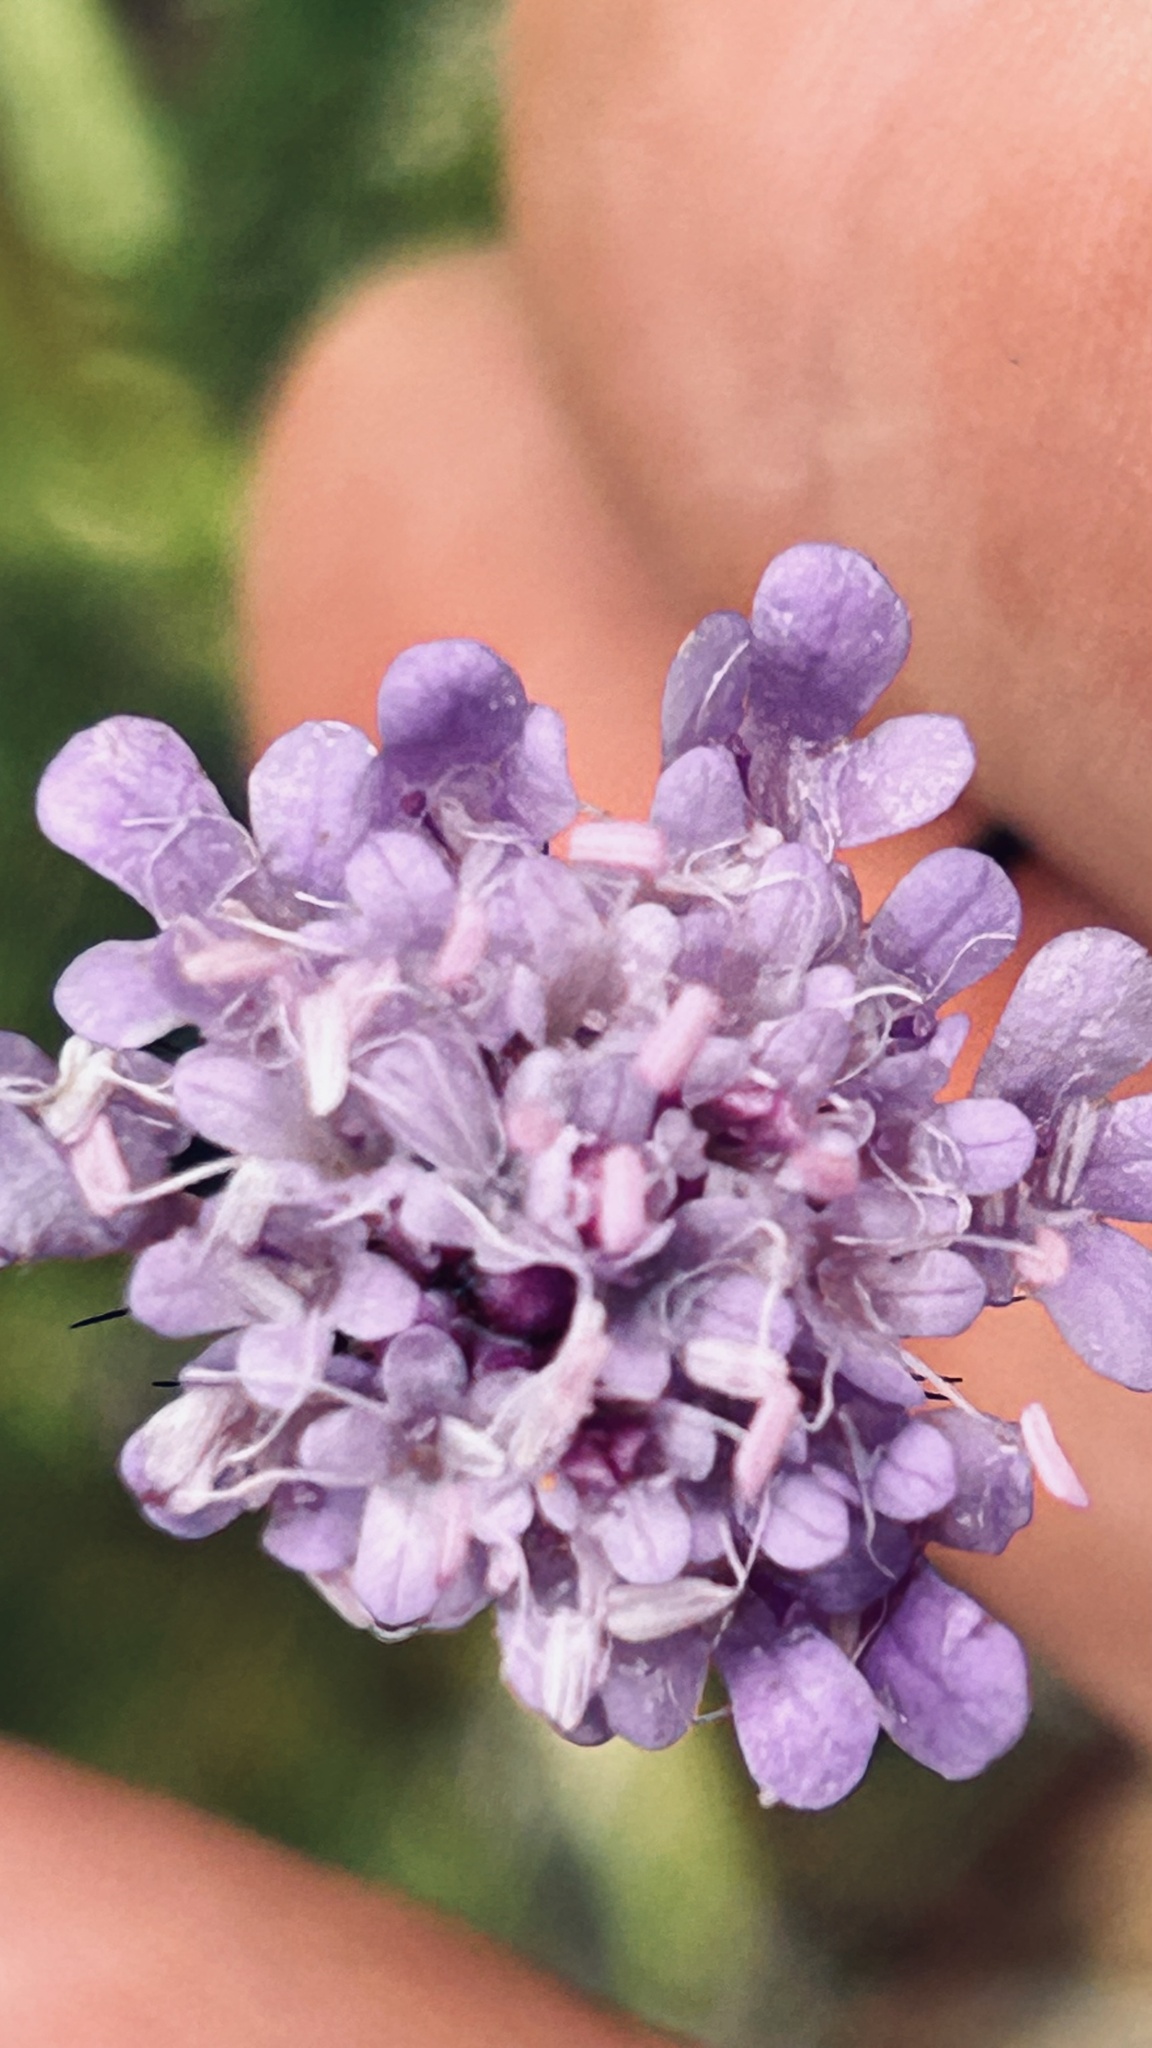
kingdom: Plantae
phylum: Tracheophyta
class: Magnoliopsida
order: Dipsacales
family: Caprifoliaceae
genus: Scabiosa
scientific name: Scabiosa columbaria
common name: Small scabious
